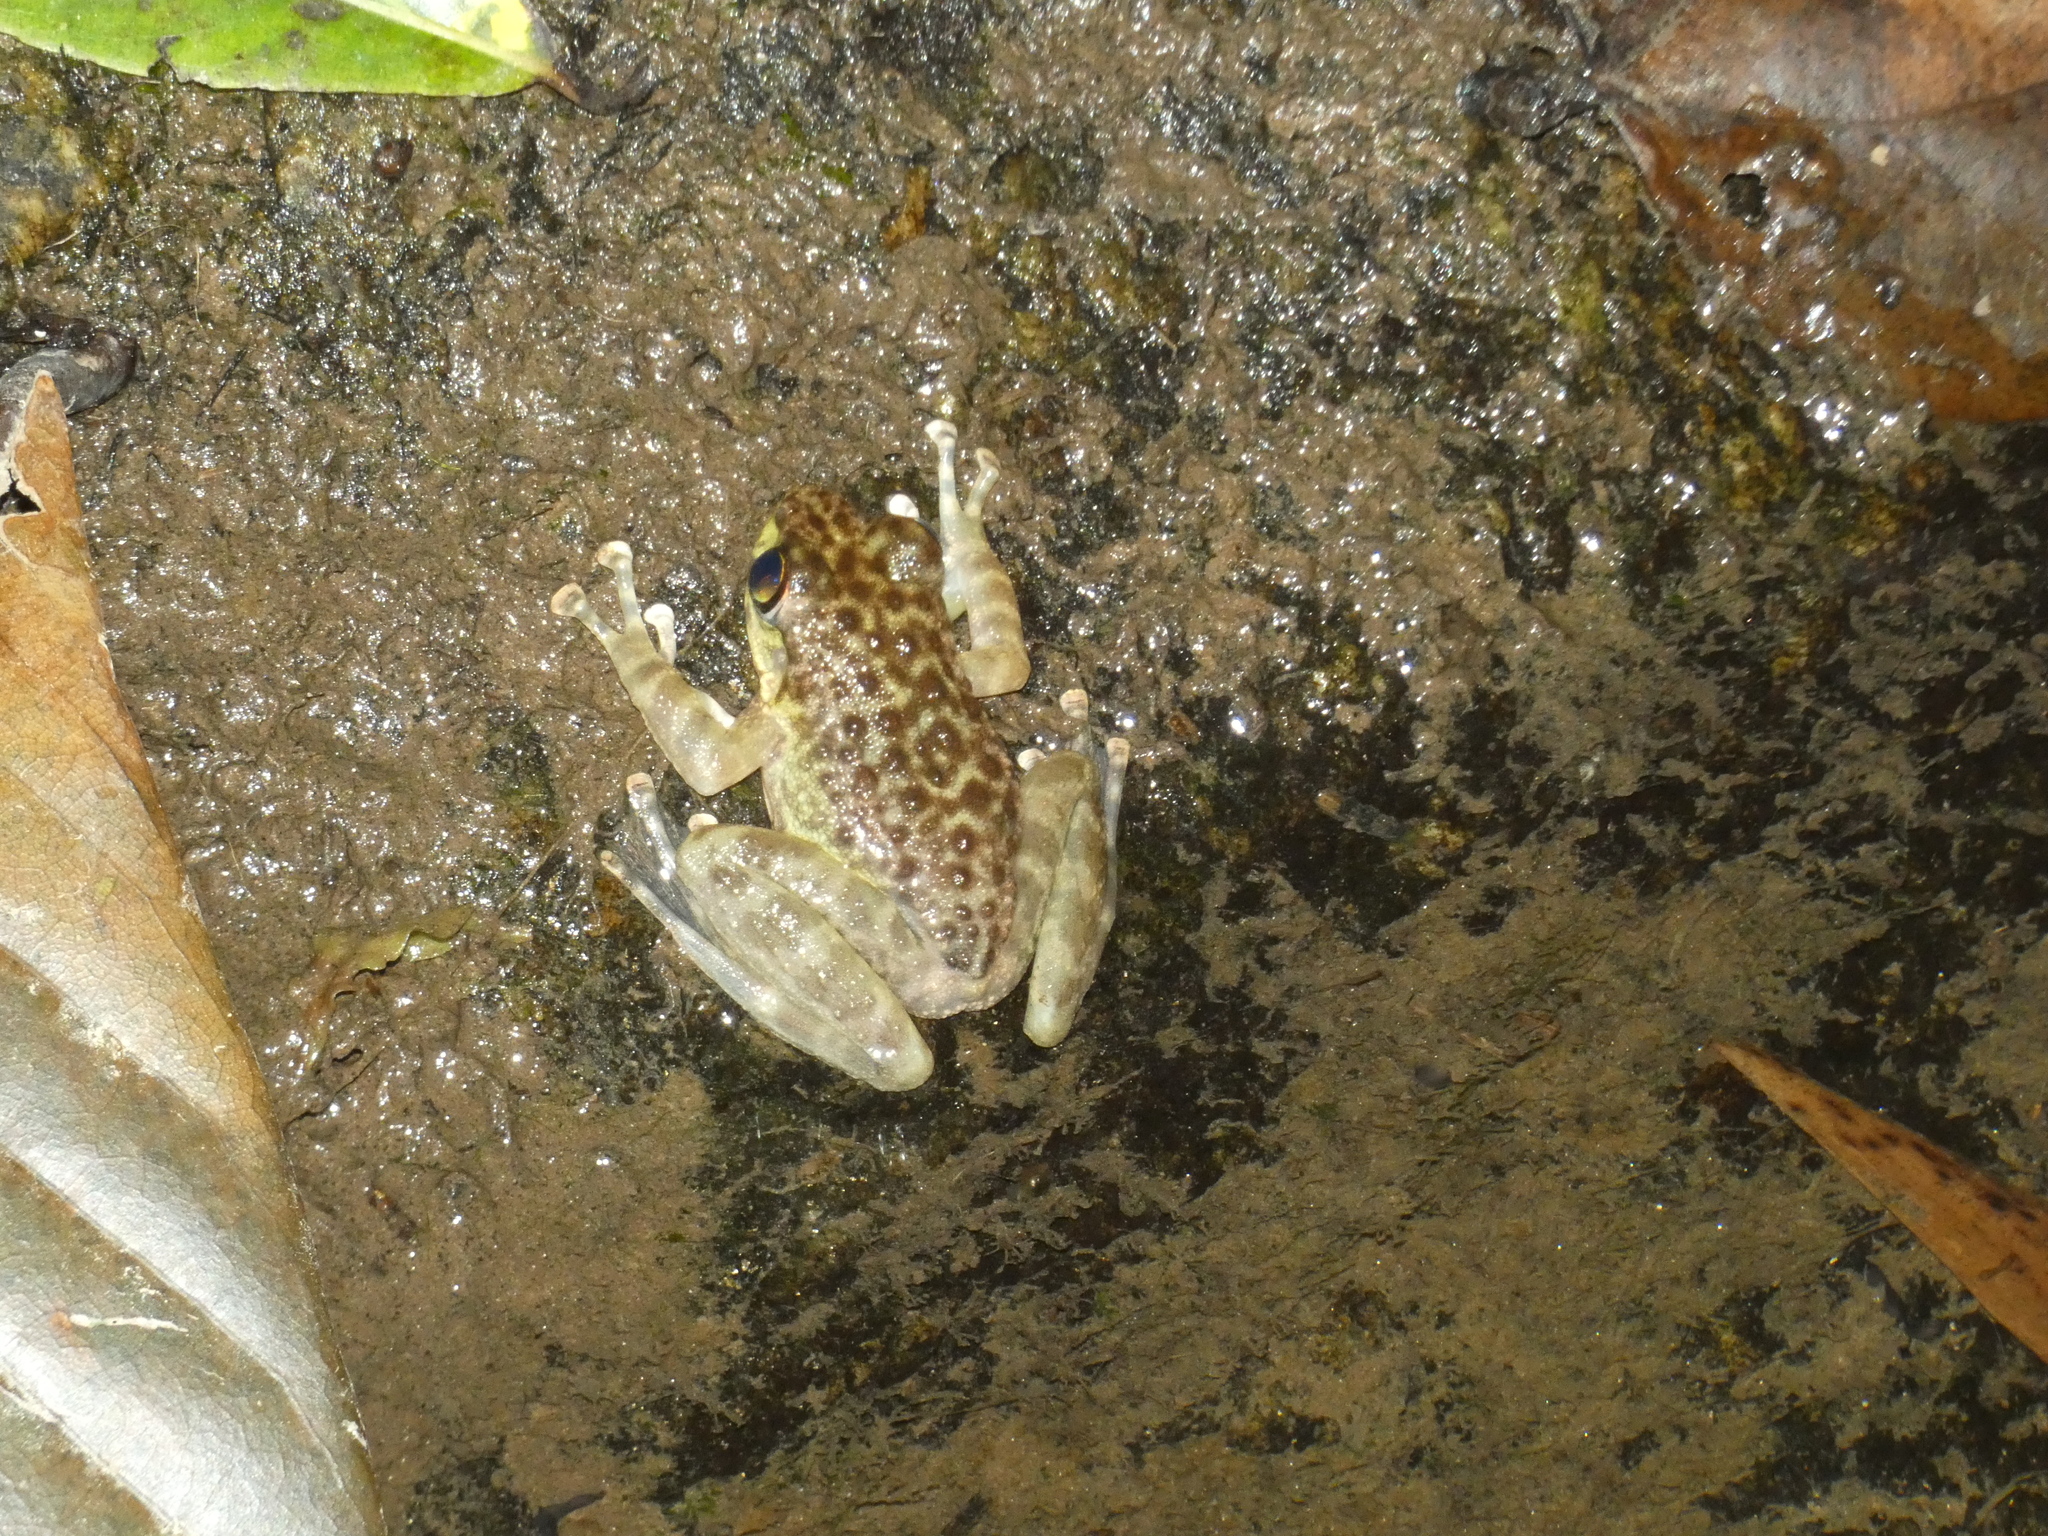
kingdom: Animalia
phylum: Chordata
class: Amphibia
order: Anura
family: Ranidae
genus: Amolops
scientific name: Amolops marmoratus
